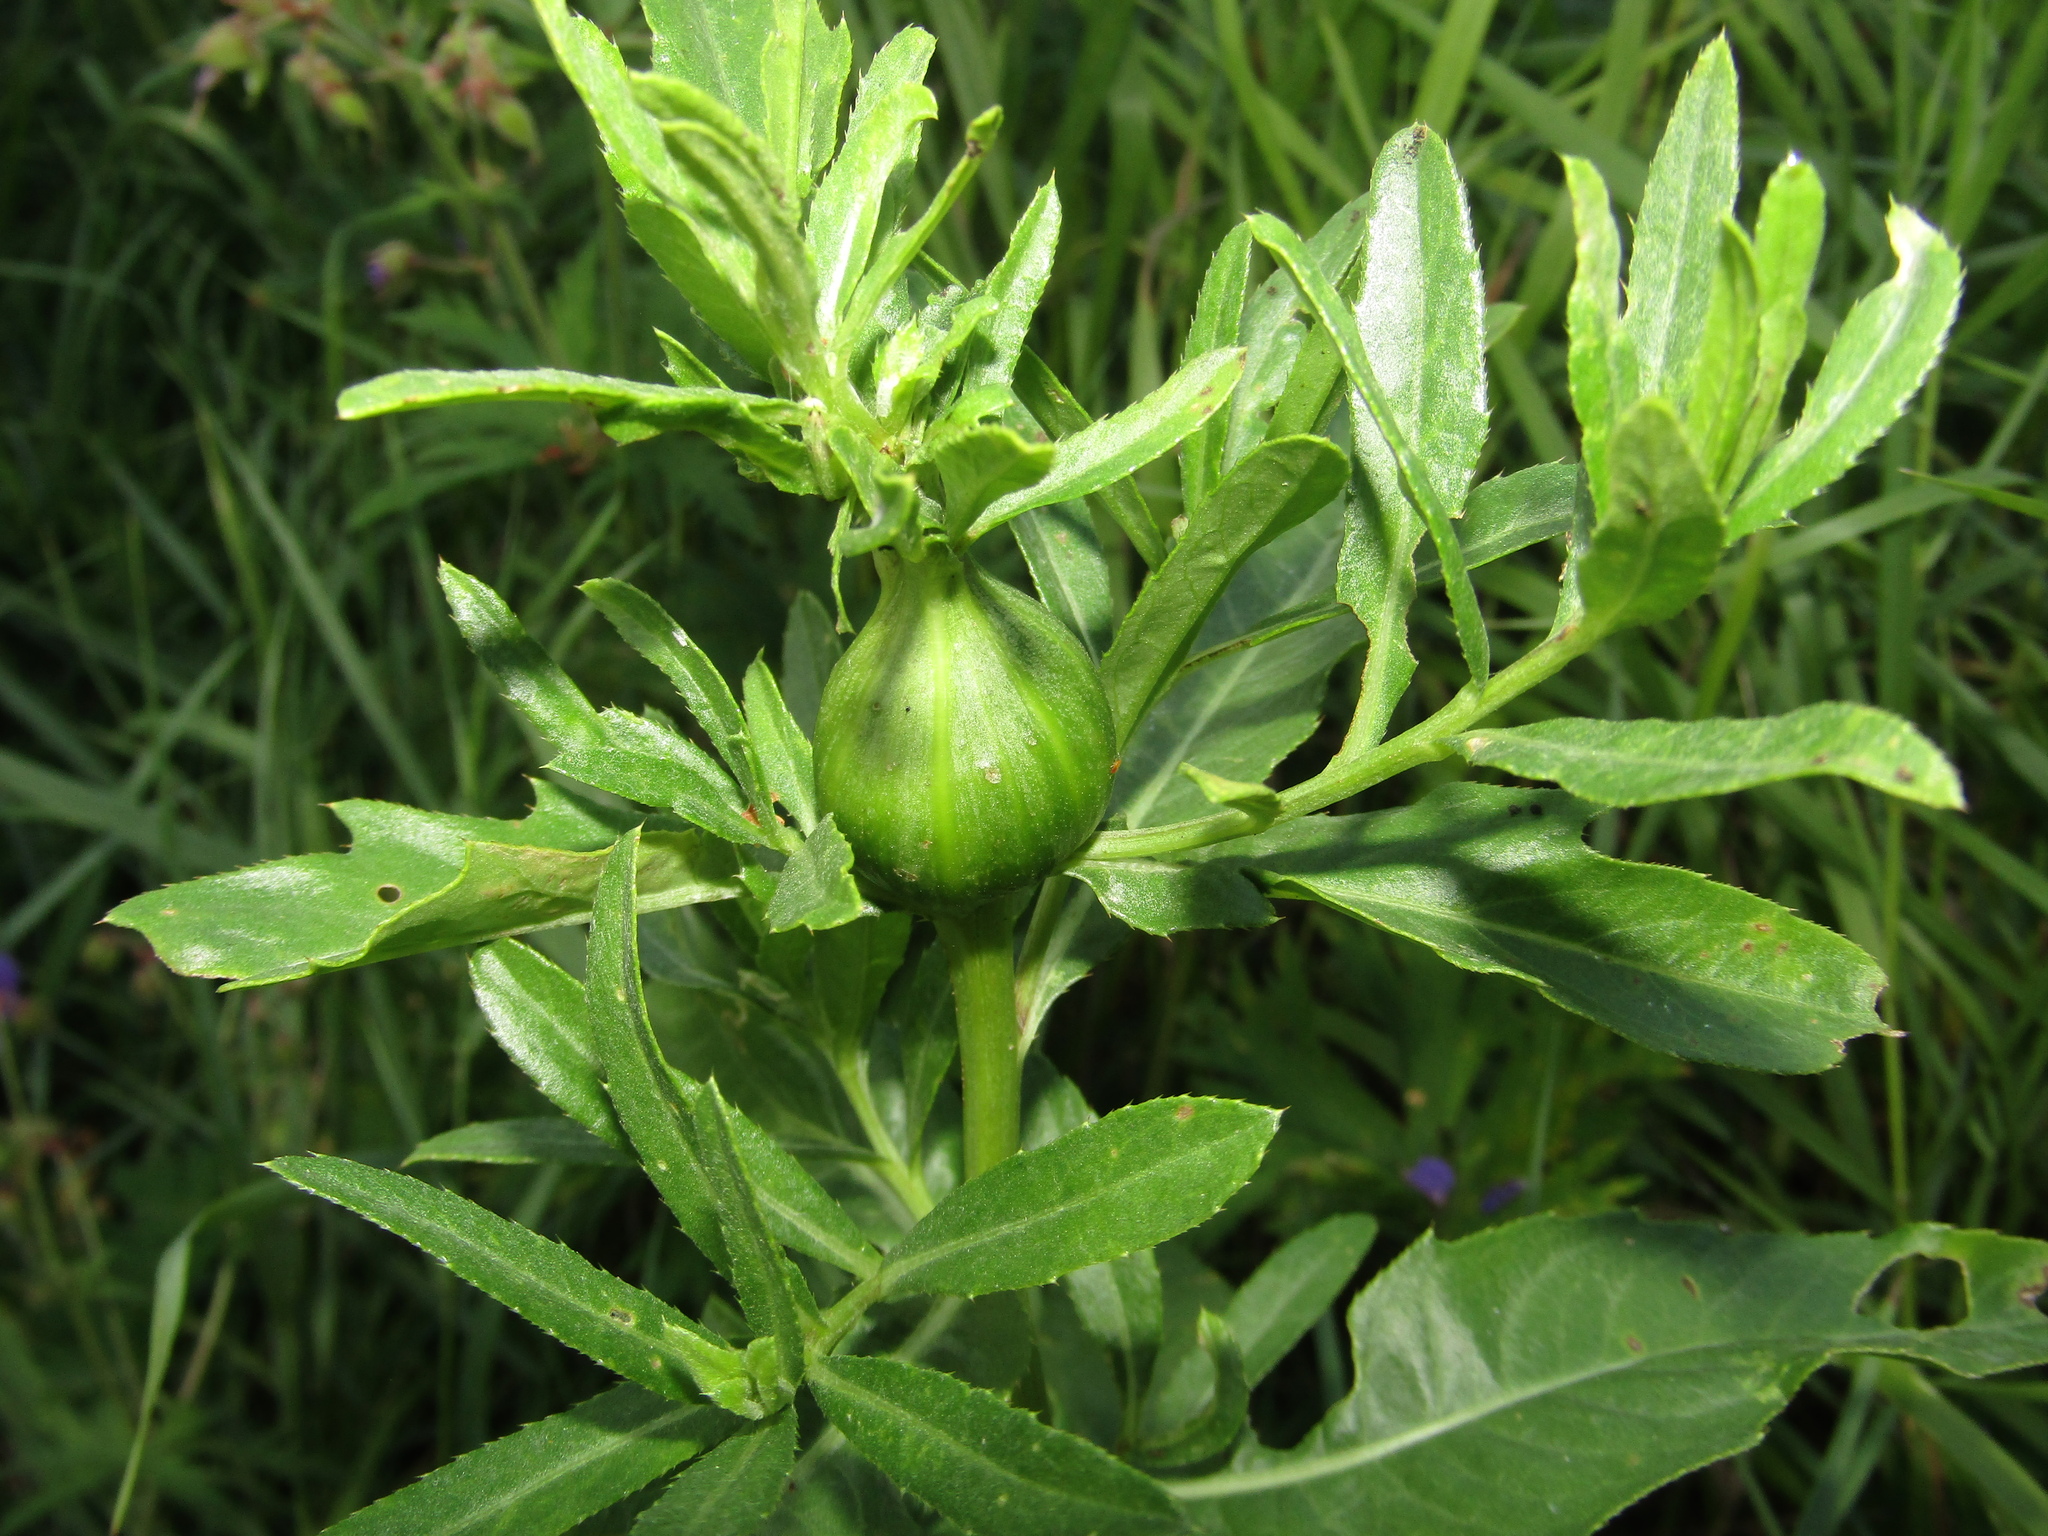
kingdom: Animalia
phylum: Arthropoda
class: Insecta
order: Diptera
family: Tephritidae
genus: Urophora
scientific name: Urophora cardui
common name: Fruit fly
